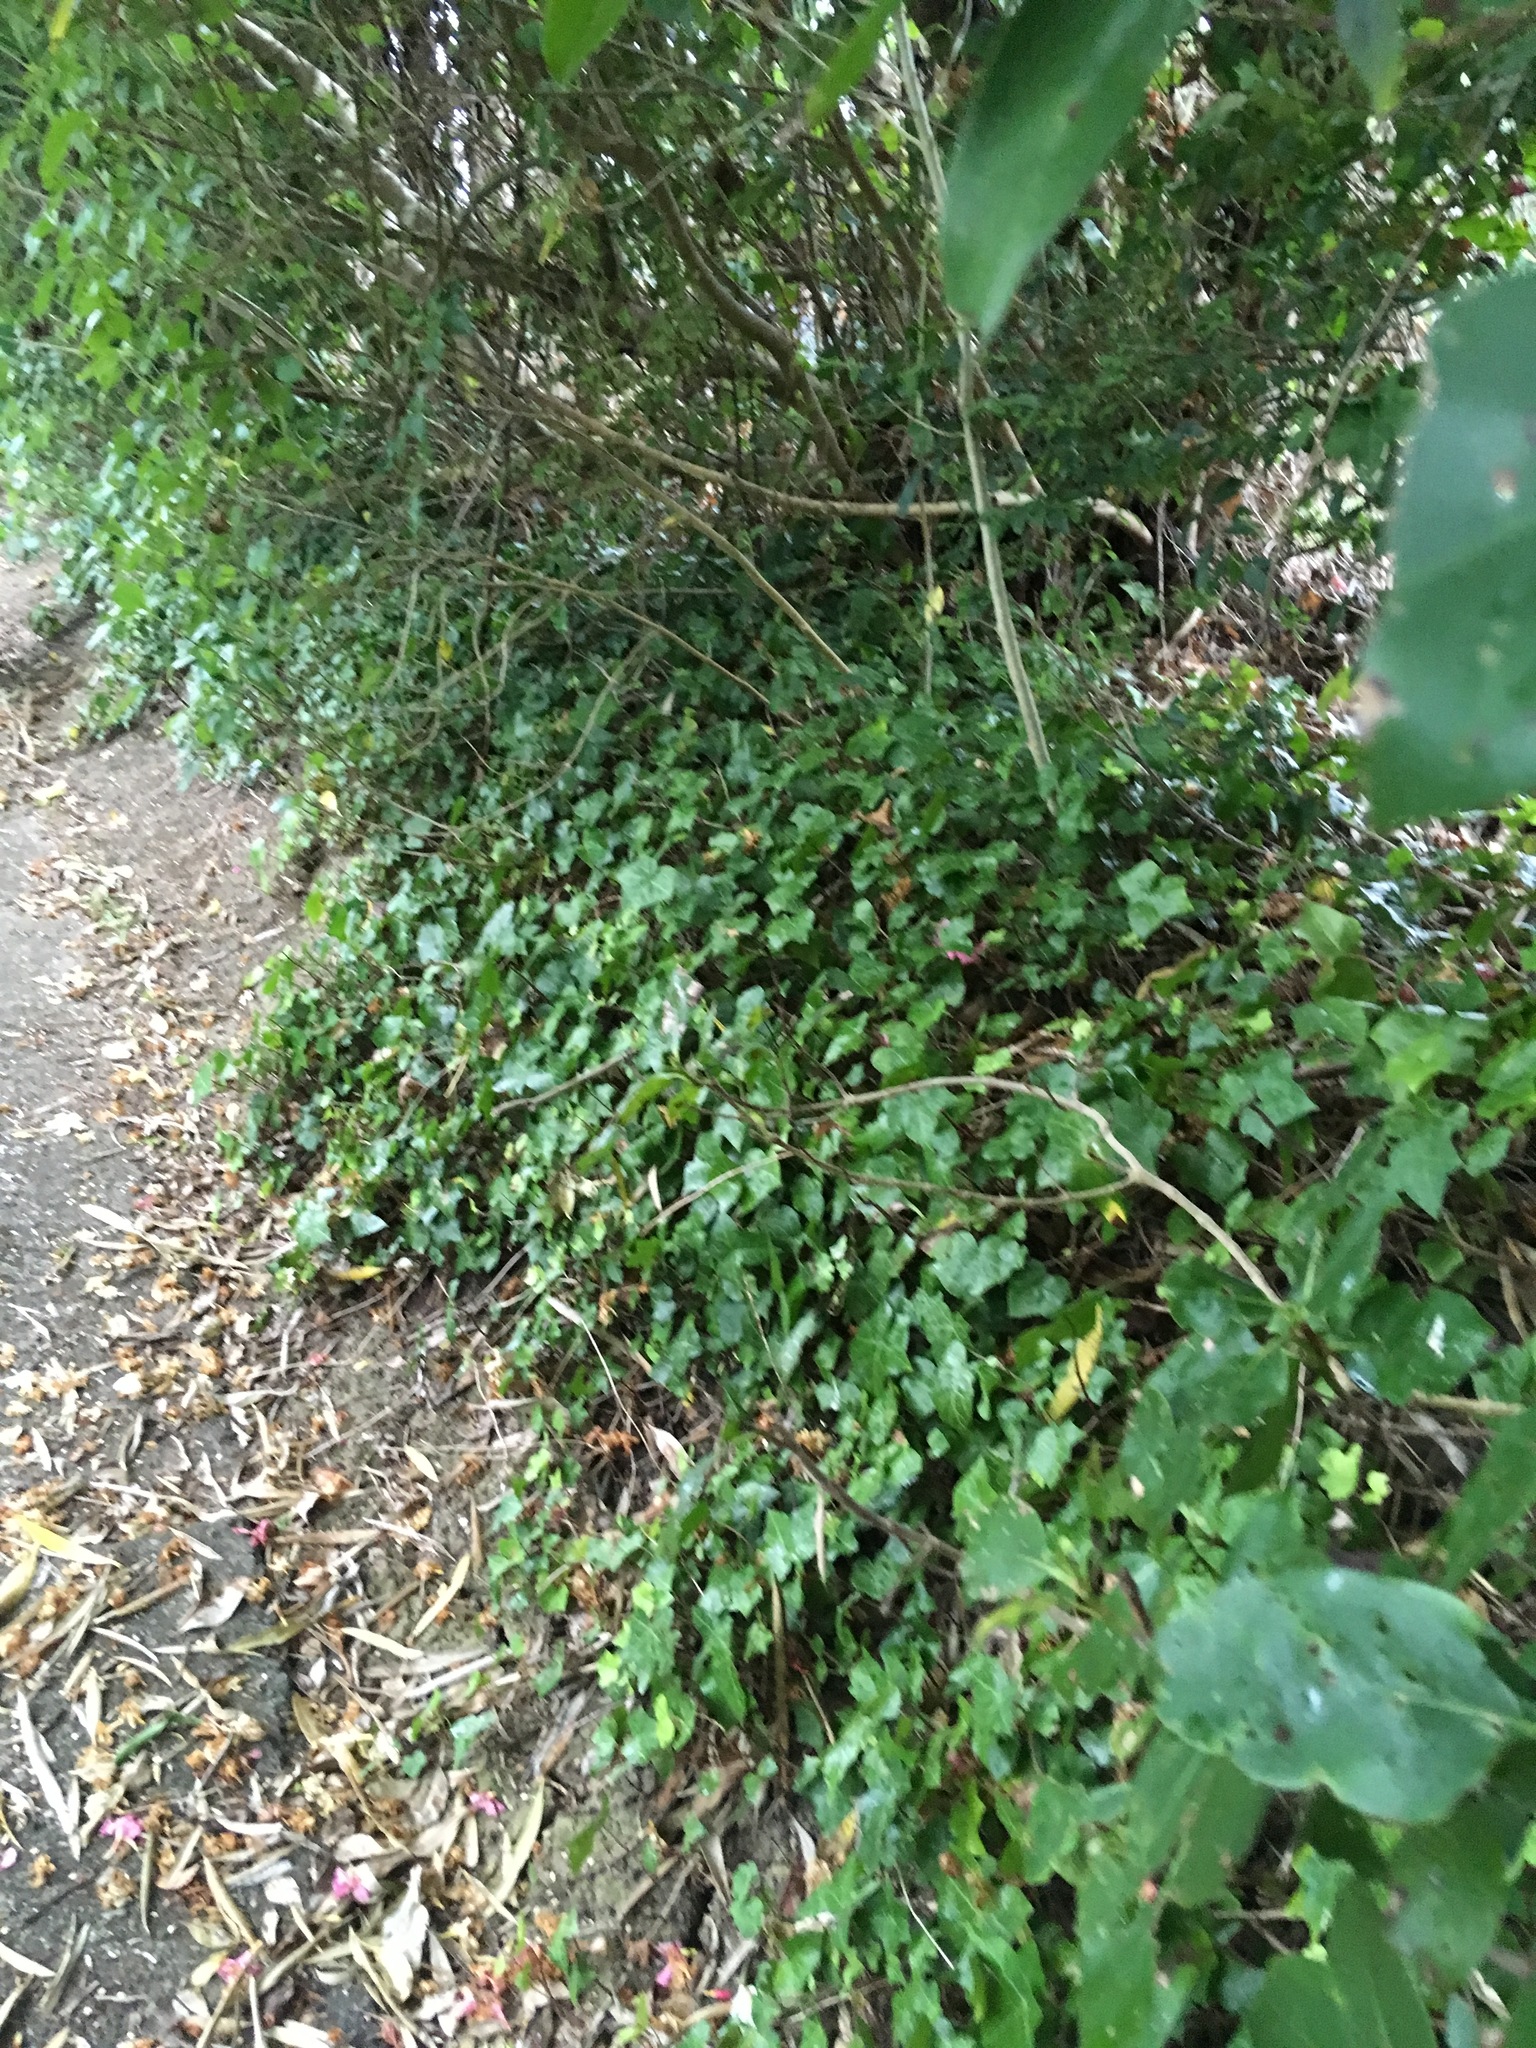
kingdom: Plantae
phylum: Tracheophyta
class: Magnoliopsida
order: Apiales
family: Araliaceae
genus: Hedera
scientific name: Hedera helix
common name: Ivy
